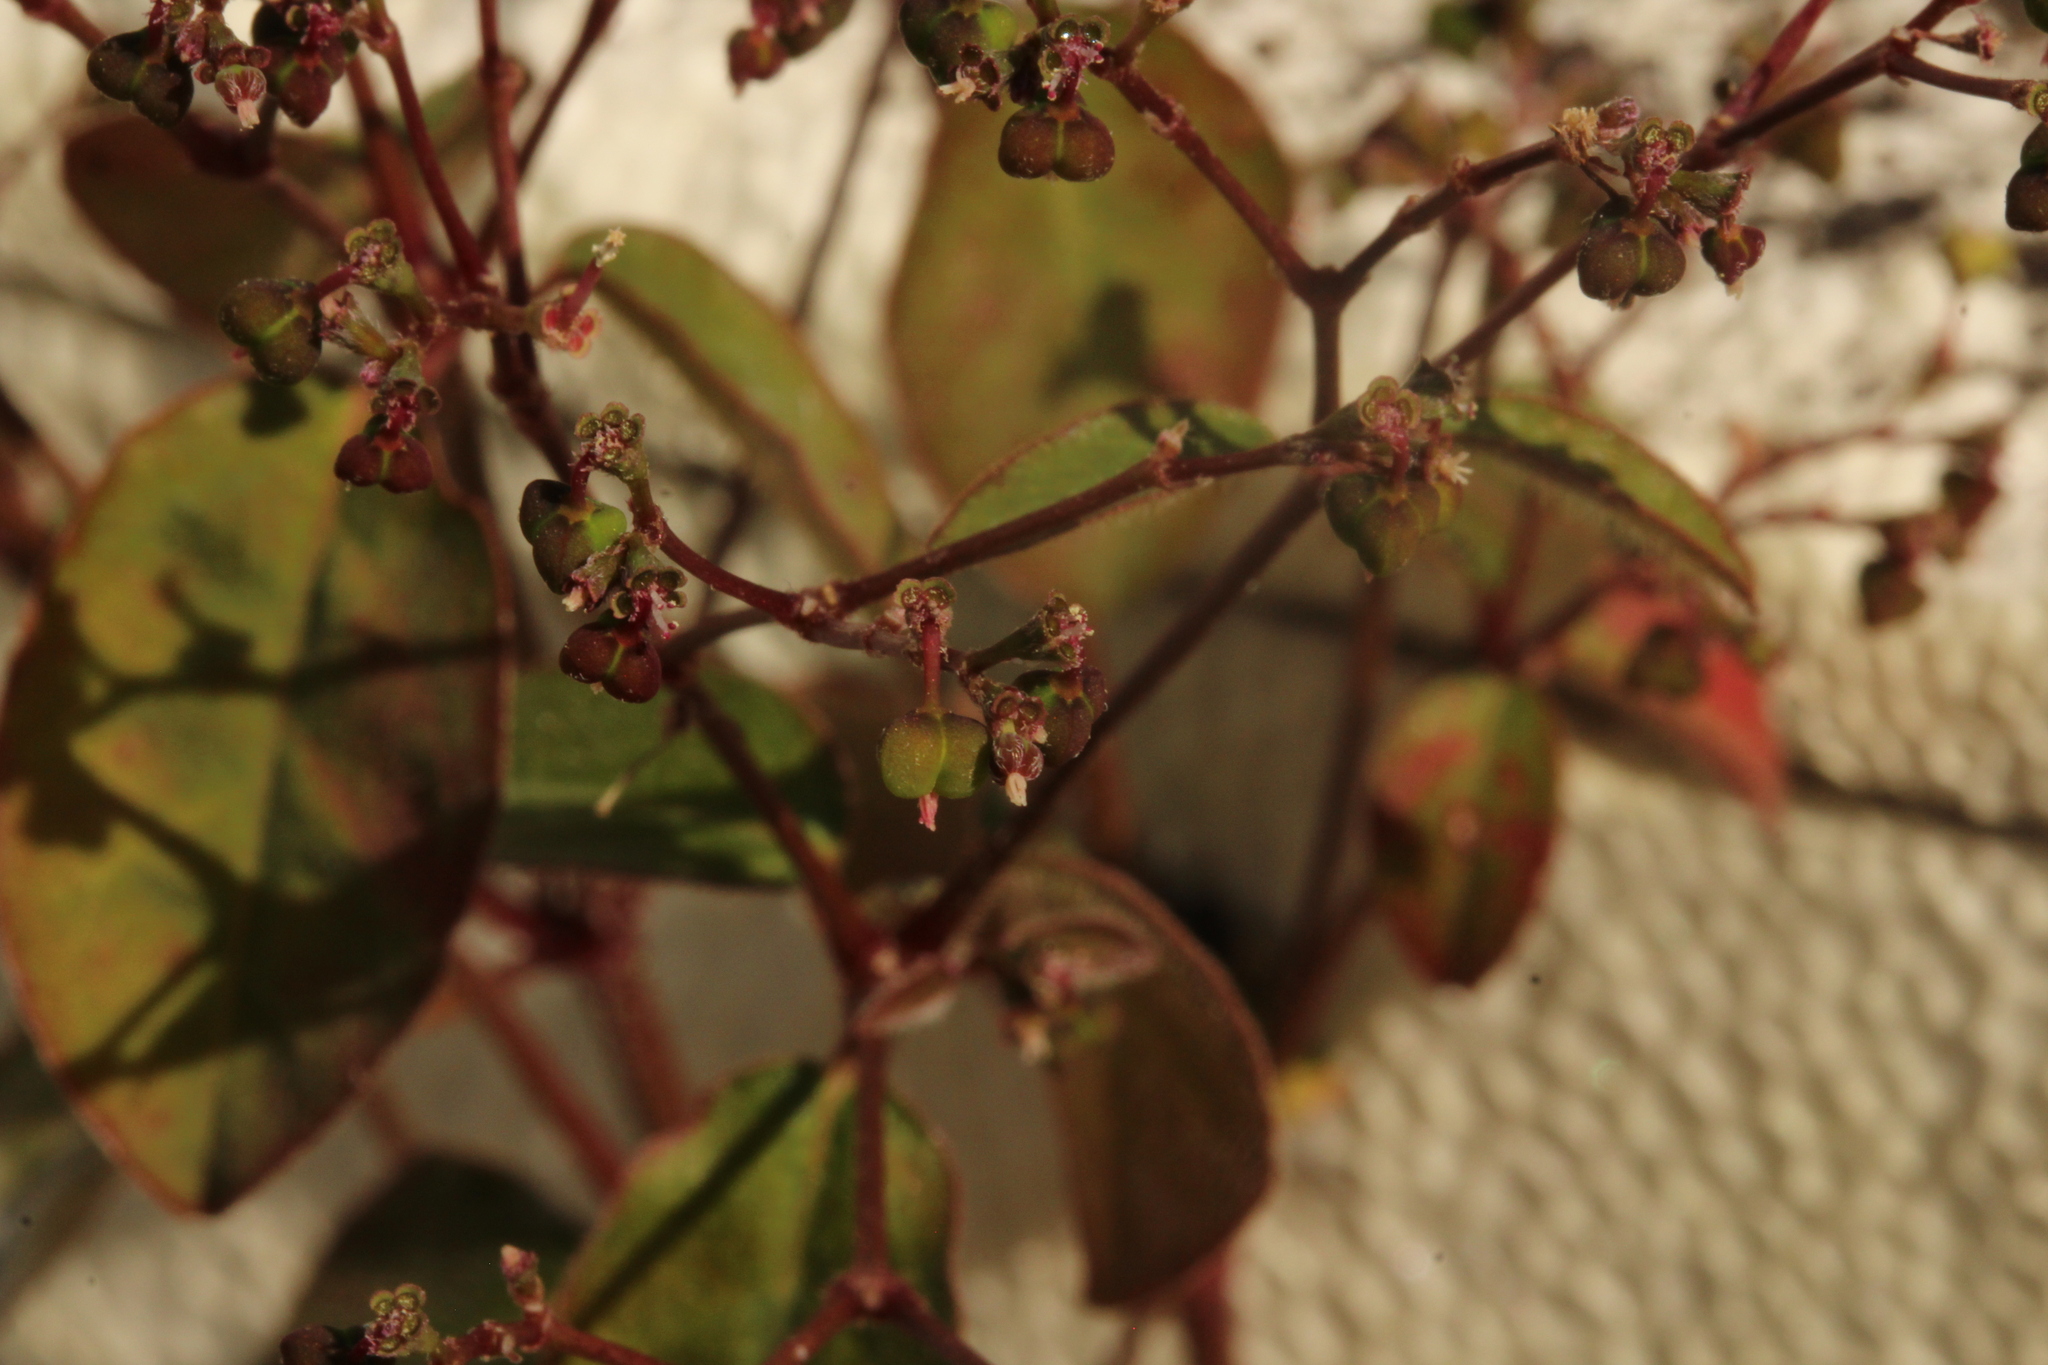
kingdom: Plantae
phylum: Tracheophyta
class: Magnoliopsida
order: Malpighiales
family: Euphorbiaceae
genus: Euphorbia
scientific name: Euphorbia graminea
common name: Grassleaf spurge
